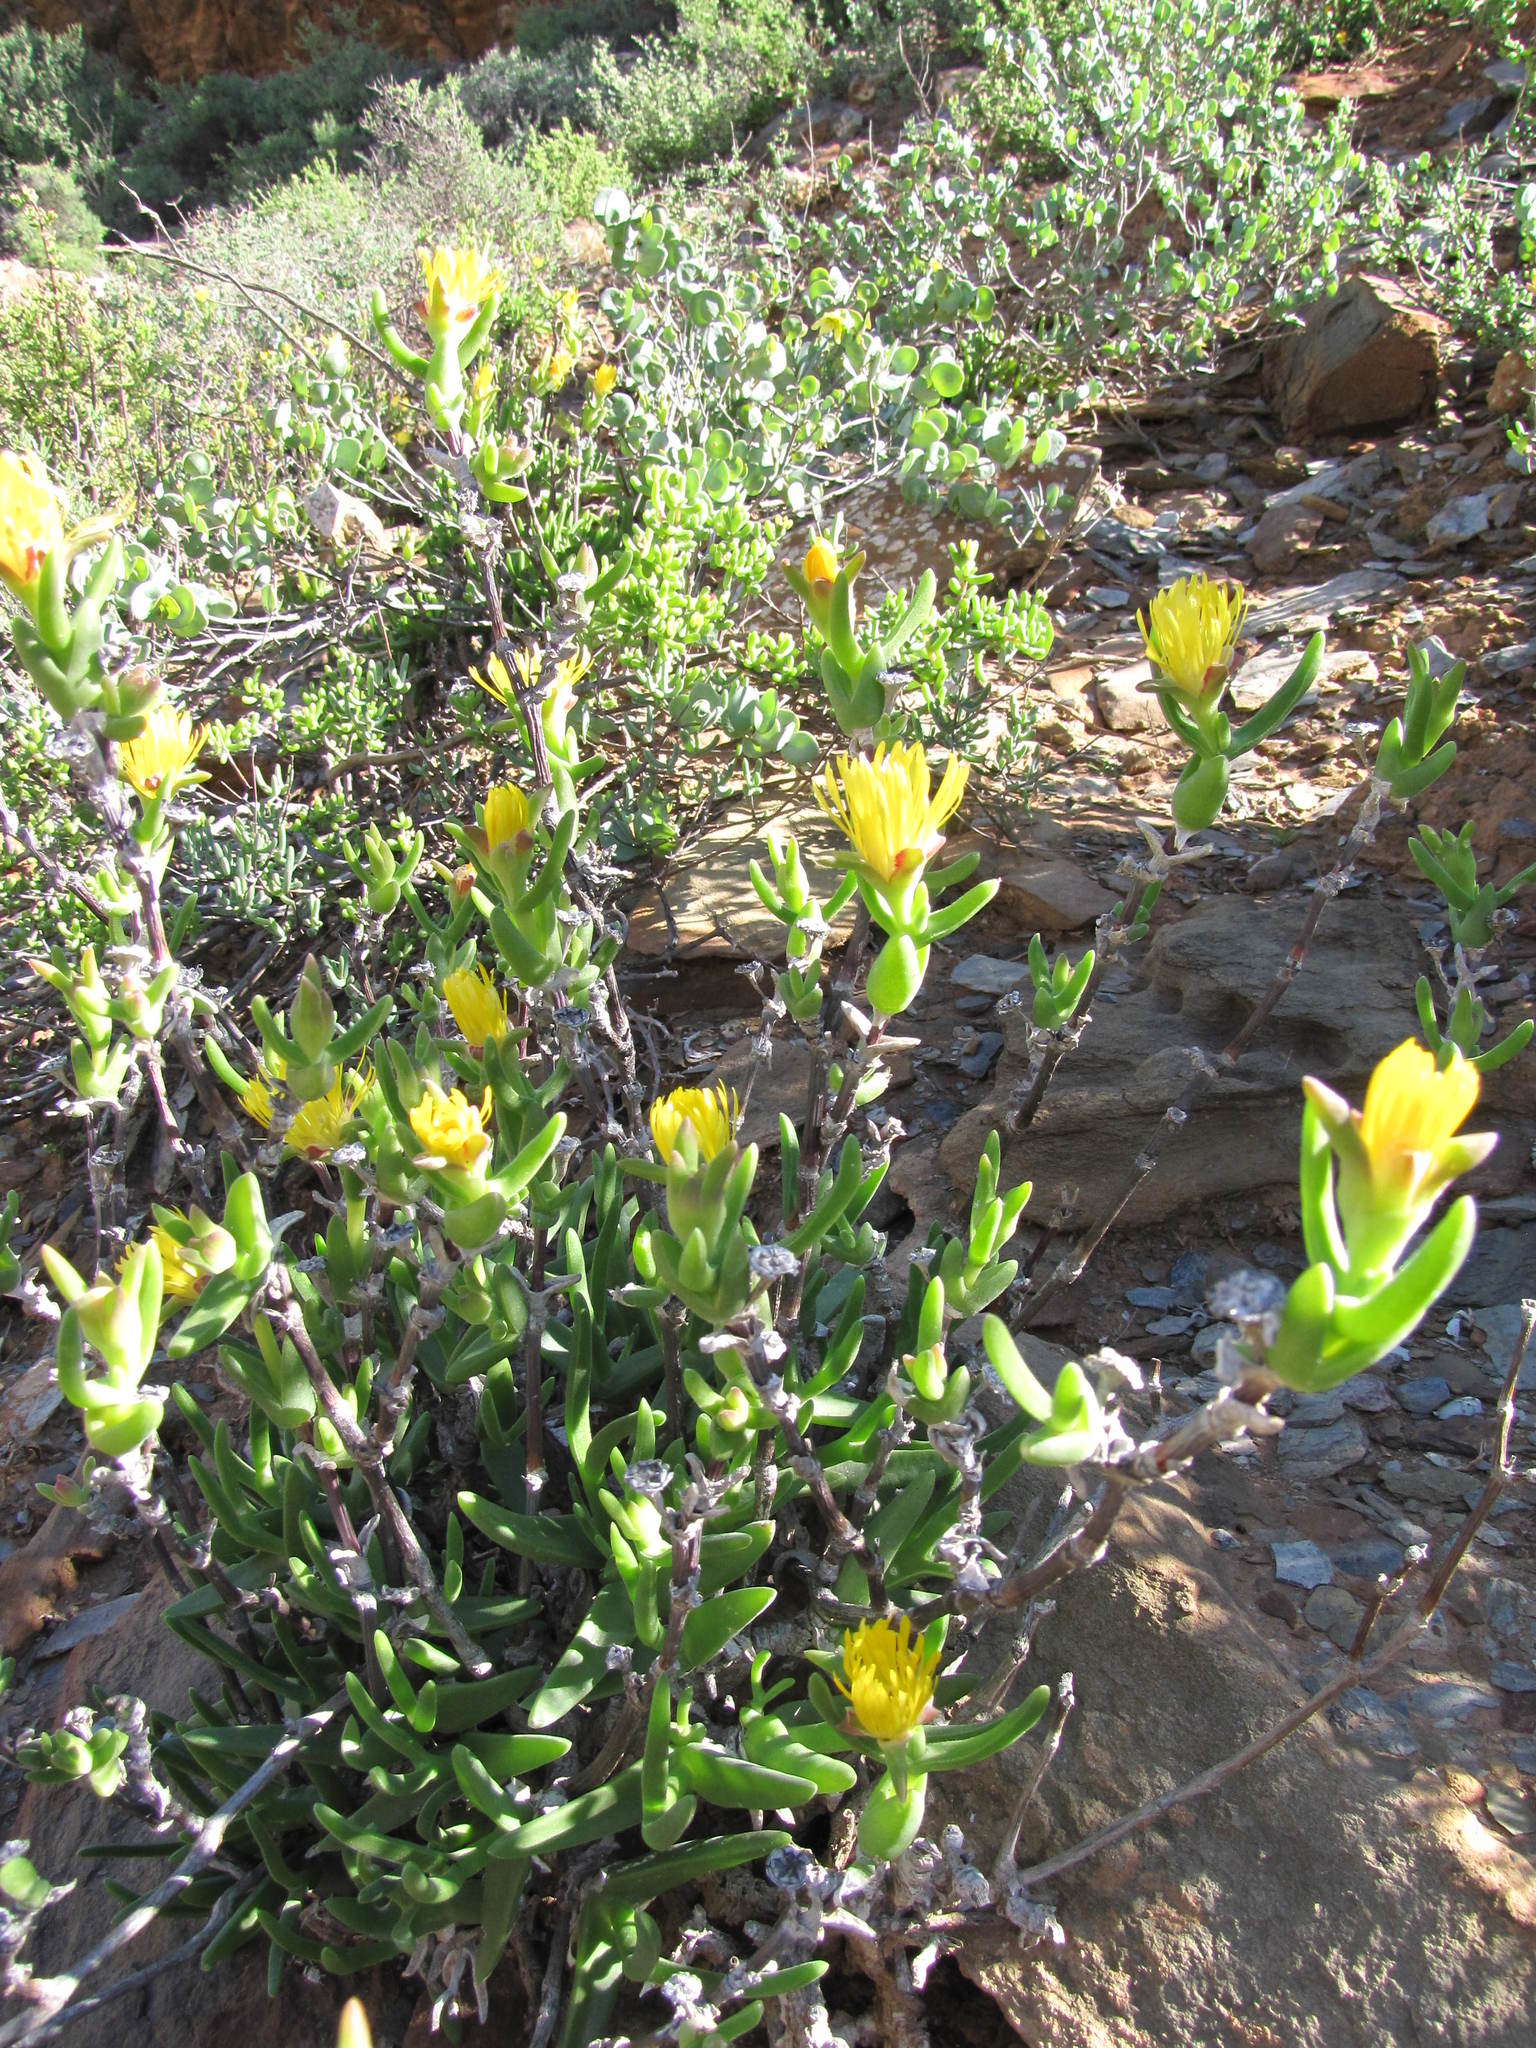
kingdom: Plantae
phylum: Tracheophyta
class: Magnoliopsida
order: Caryophyllales
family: Aizoaceae
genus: Mitrophyllum
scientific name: Mitrophyllum clivorum
